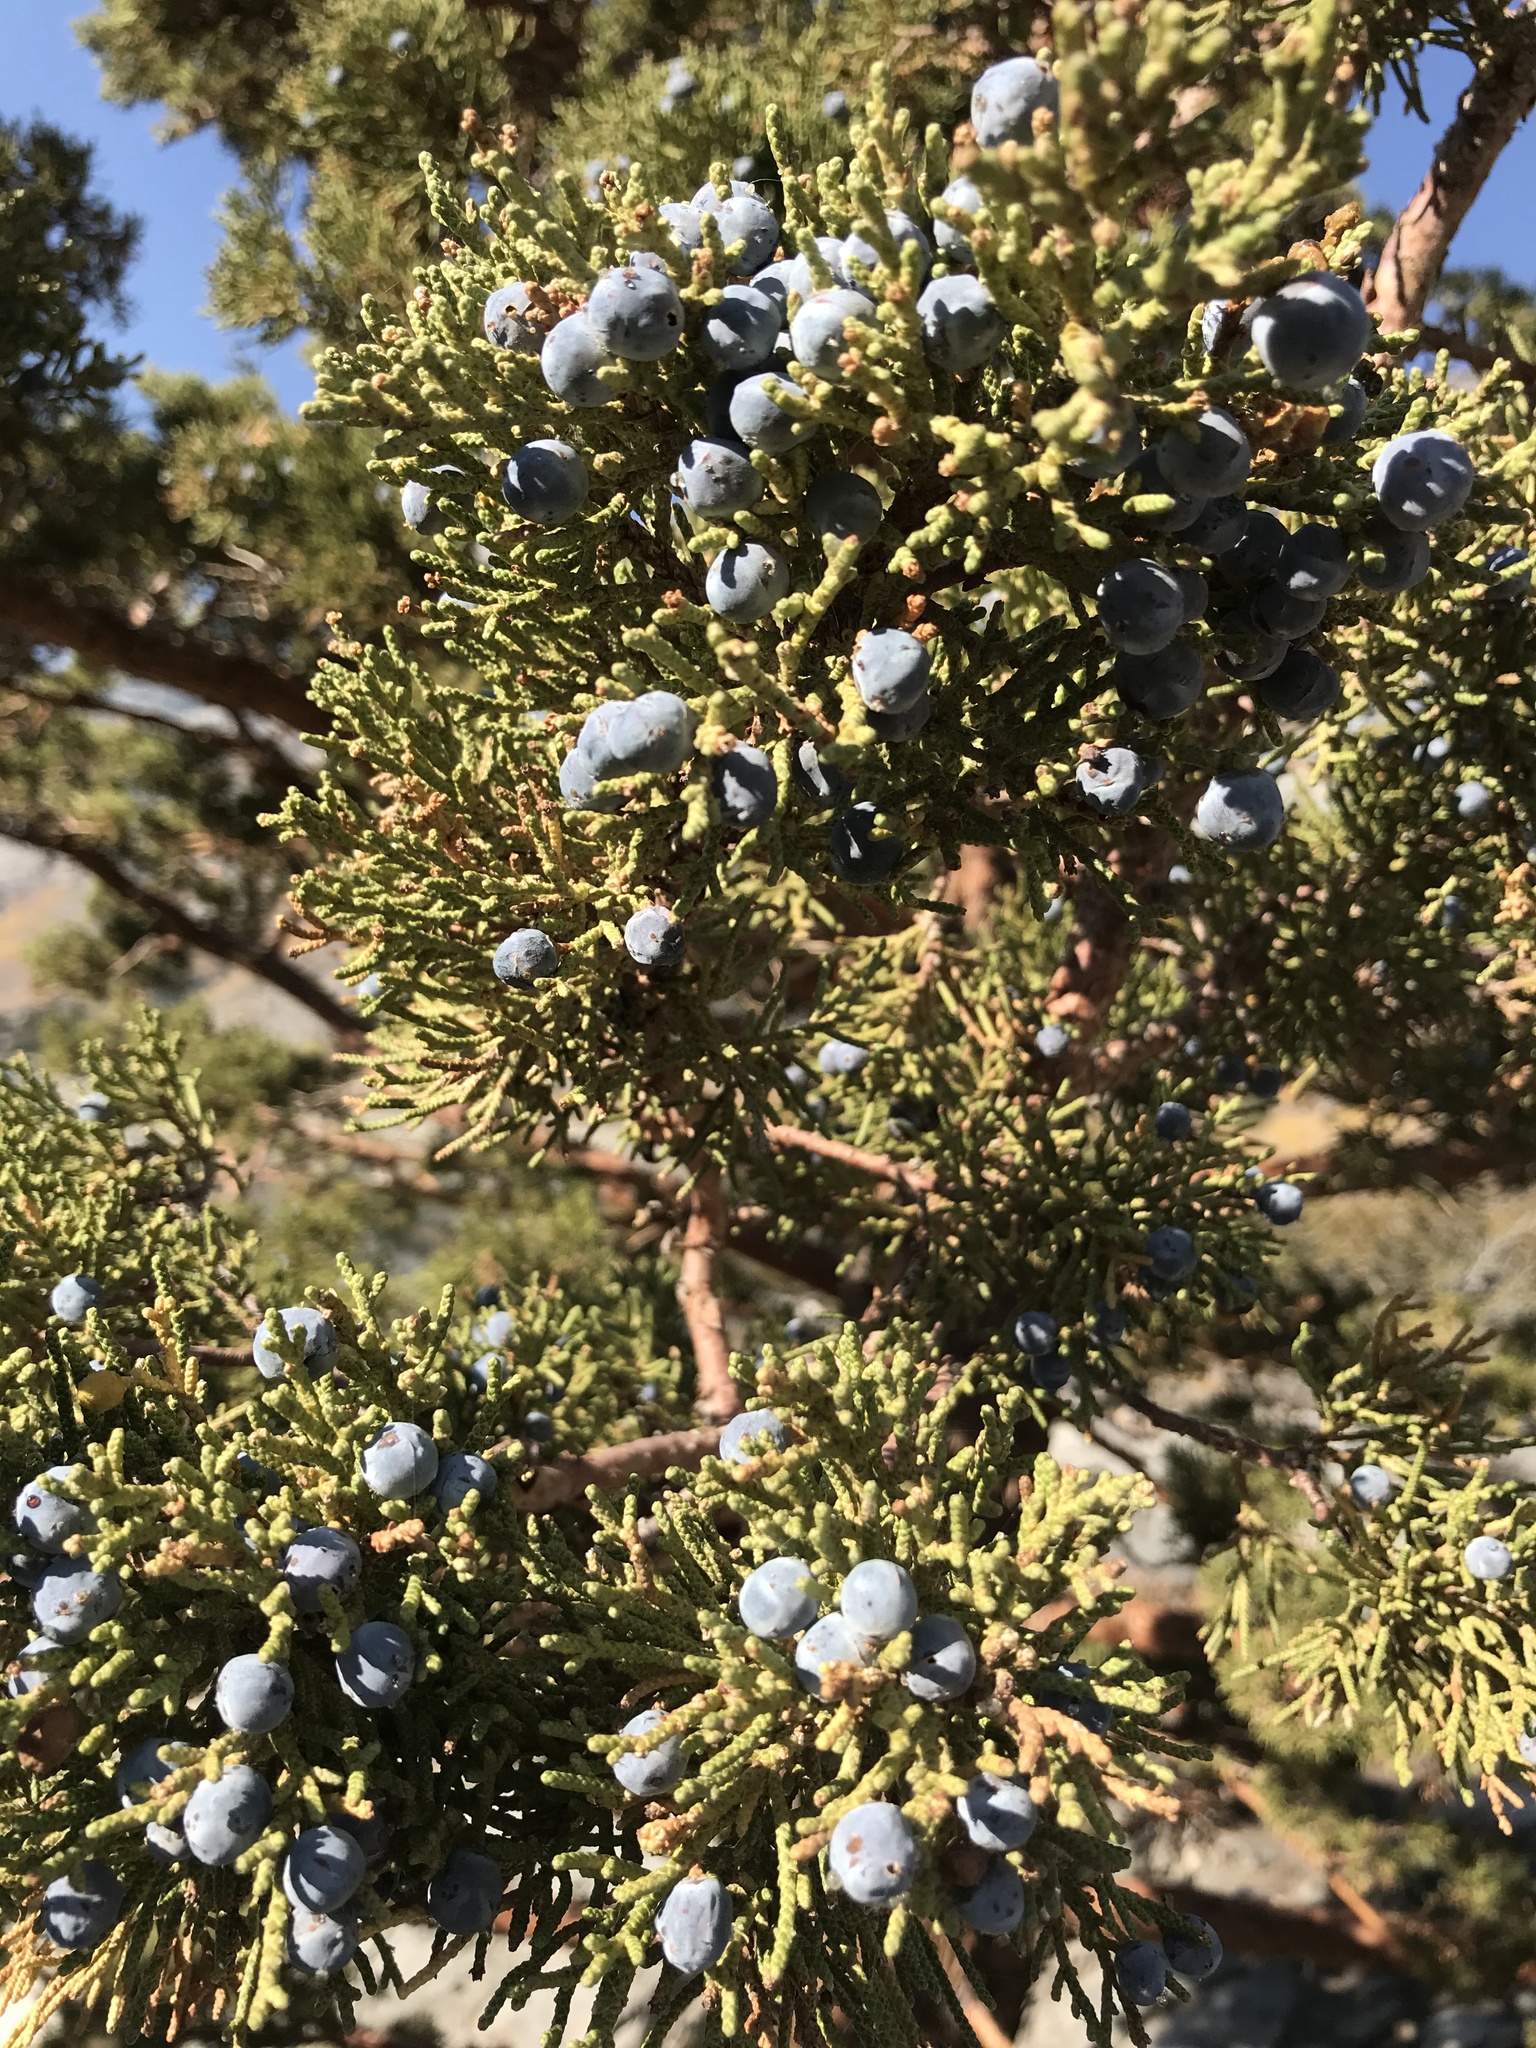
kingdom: Plantae
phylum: Tracheophyta
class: Pinopsida
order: Pinales
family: Cupressaceae
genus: Juniperus
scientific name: Juniperus occidentalis
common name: Western juniper
